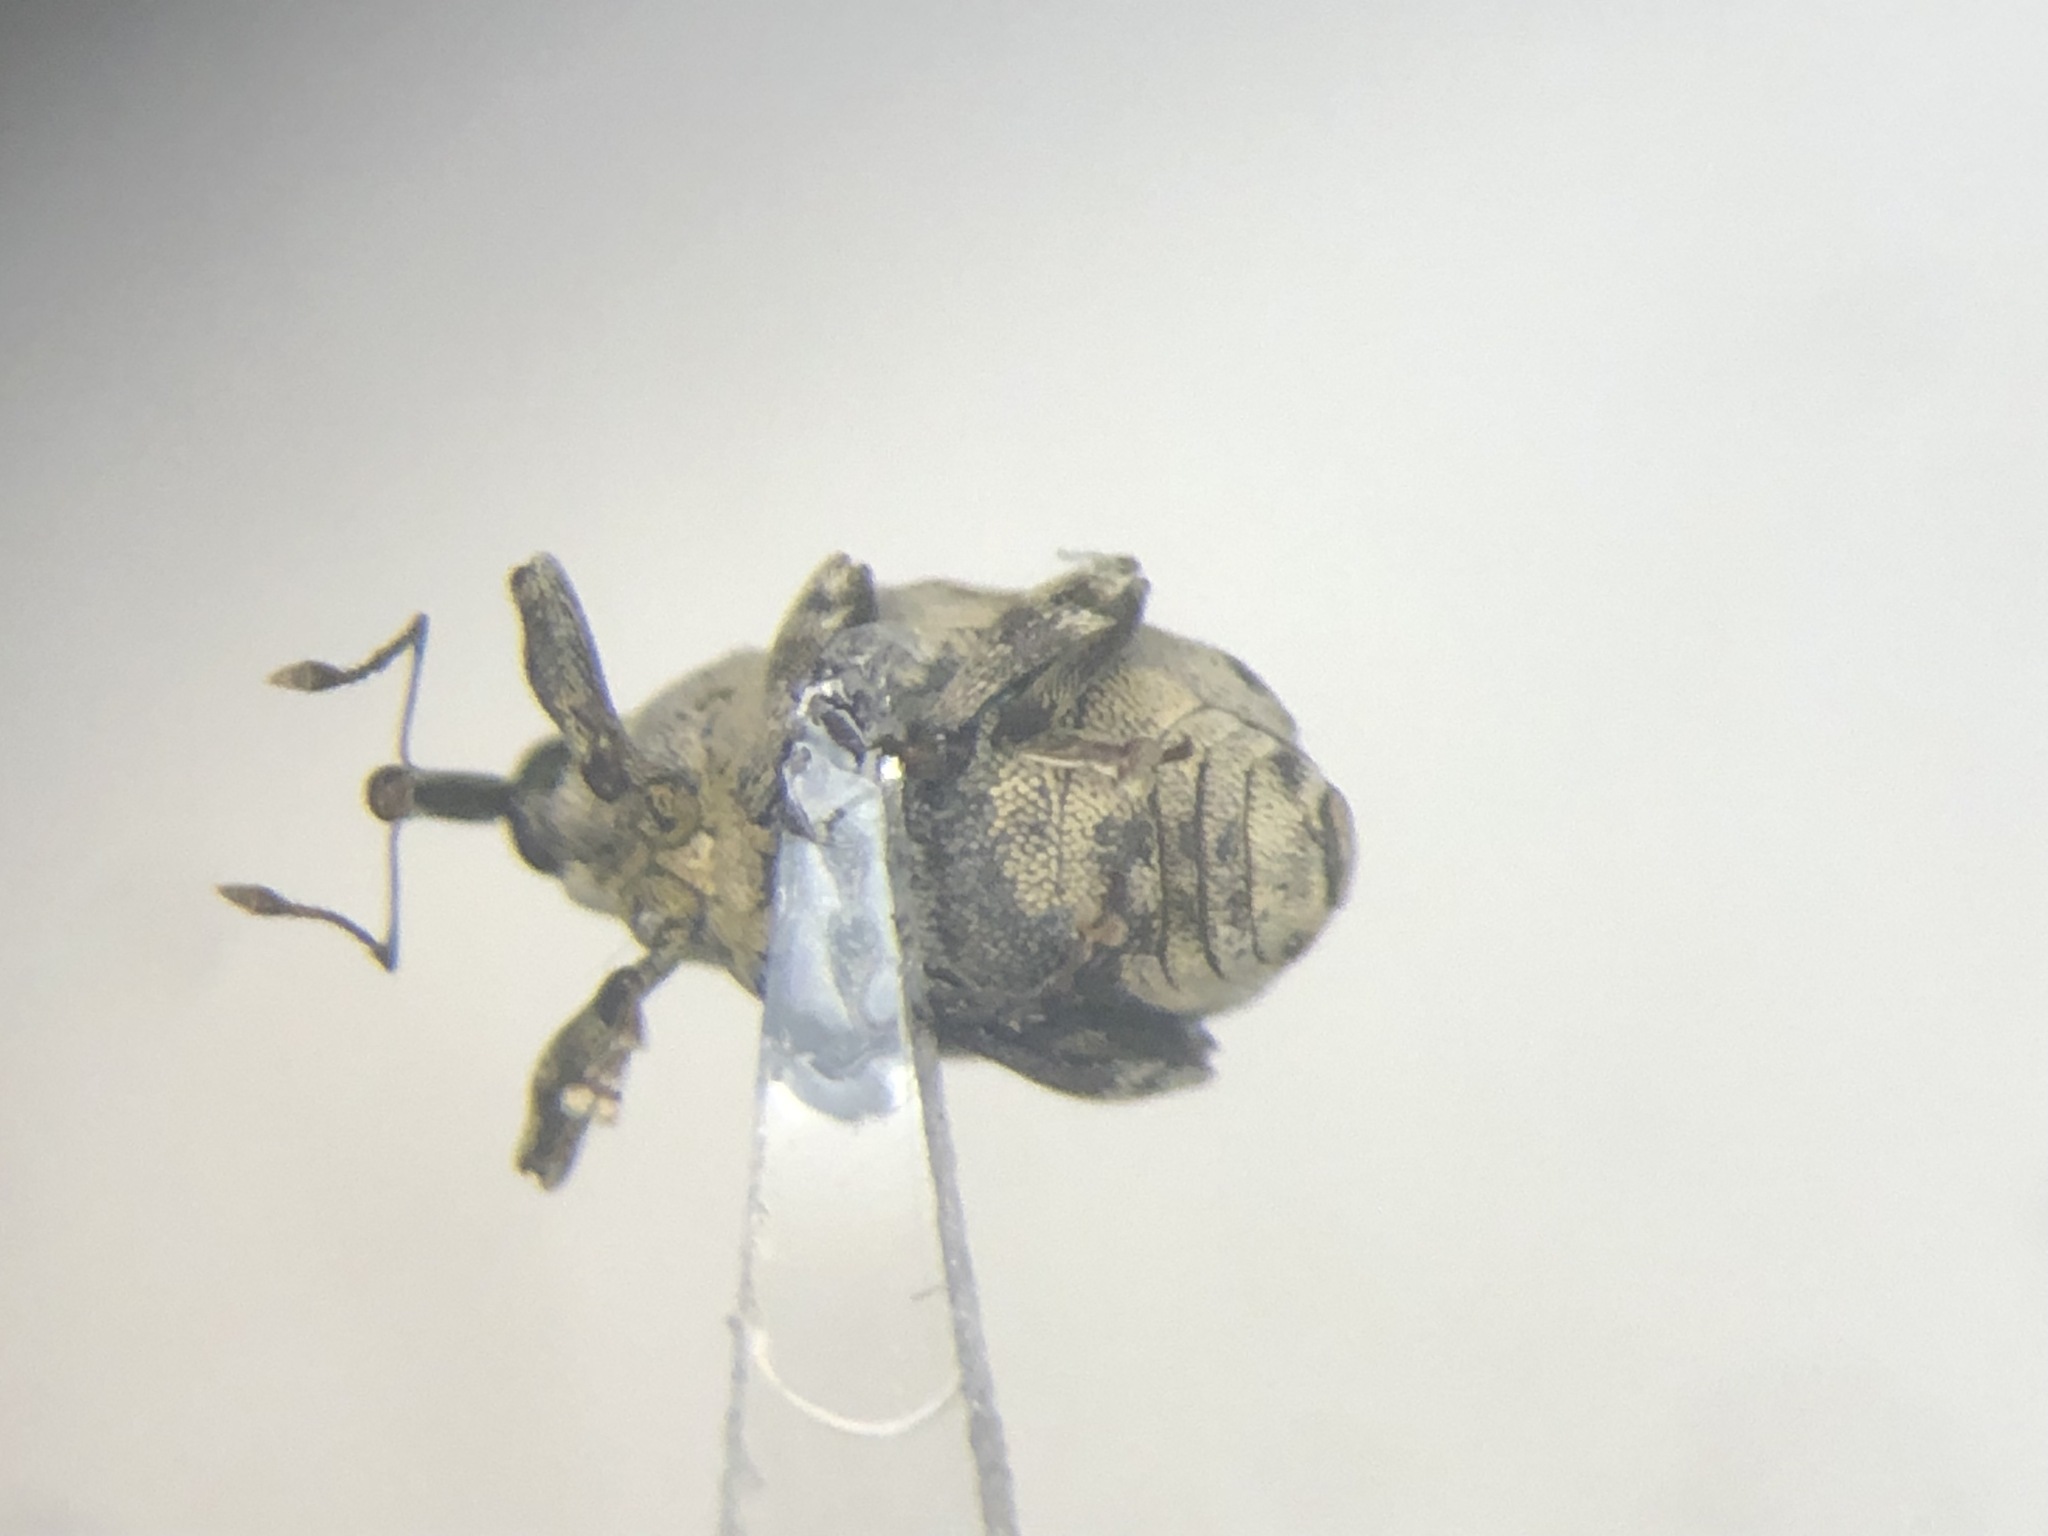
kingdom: Animalia
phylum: Arthropoda
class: Insecta
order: Coleoptera
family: Curculionidae
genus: Hadroplontus
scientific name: Hadroplontus litura
